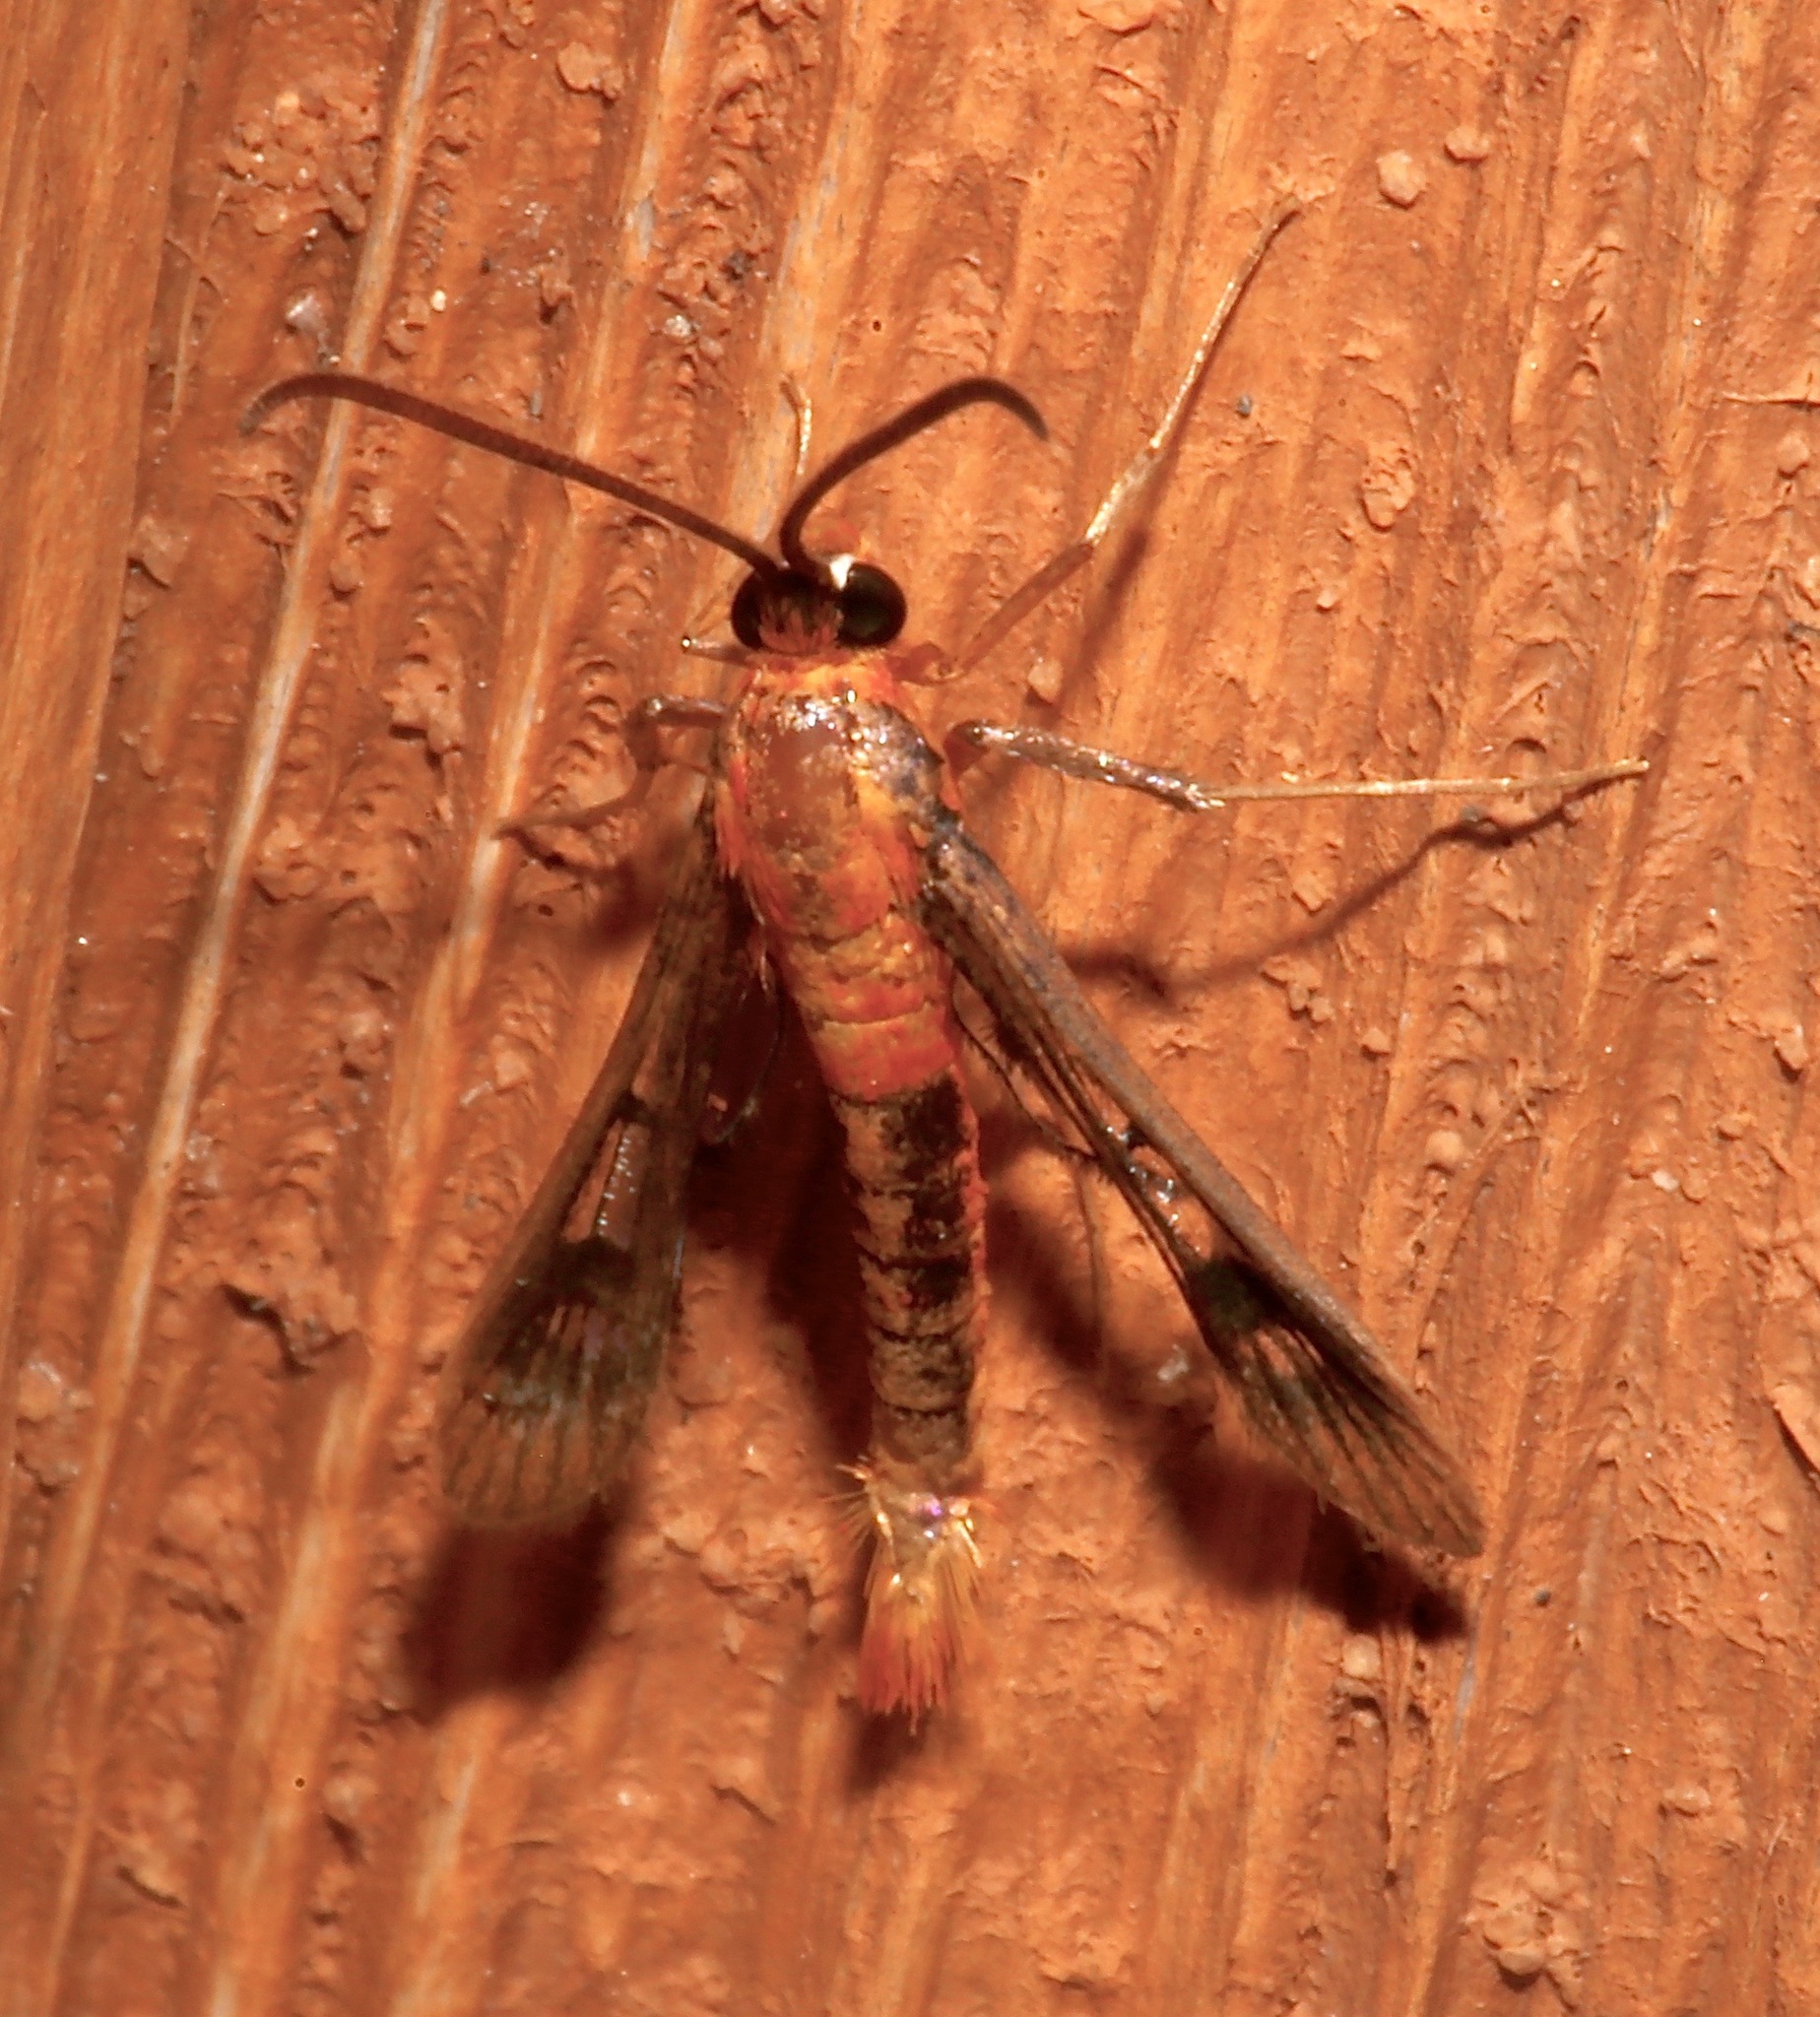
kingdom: Animalia
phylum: Arthropoda
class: Insecta
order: Lepidoptera
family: Sesiidae
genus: Synanthedon
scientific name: Synanthedon acerni
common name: Maple callus borer moth
